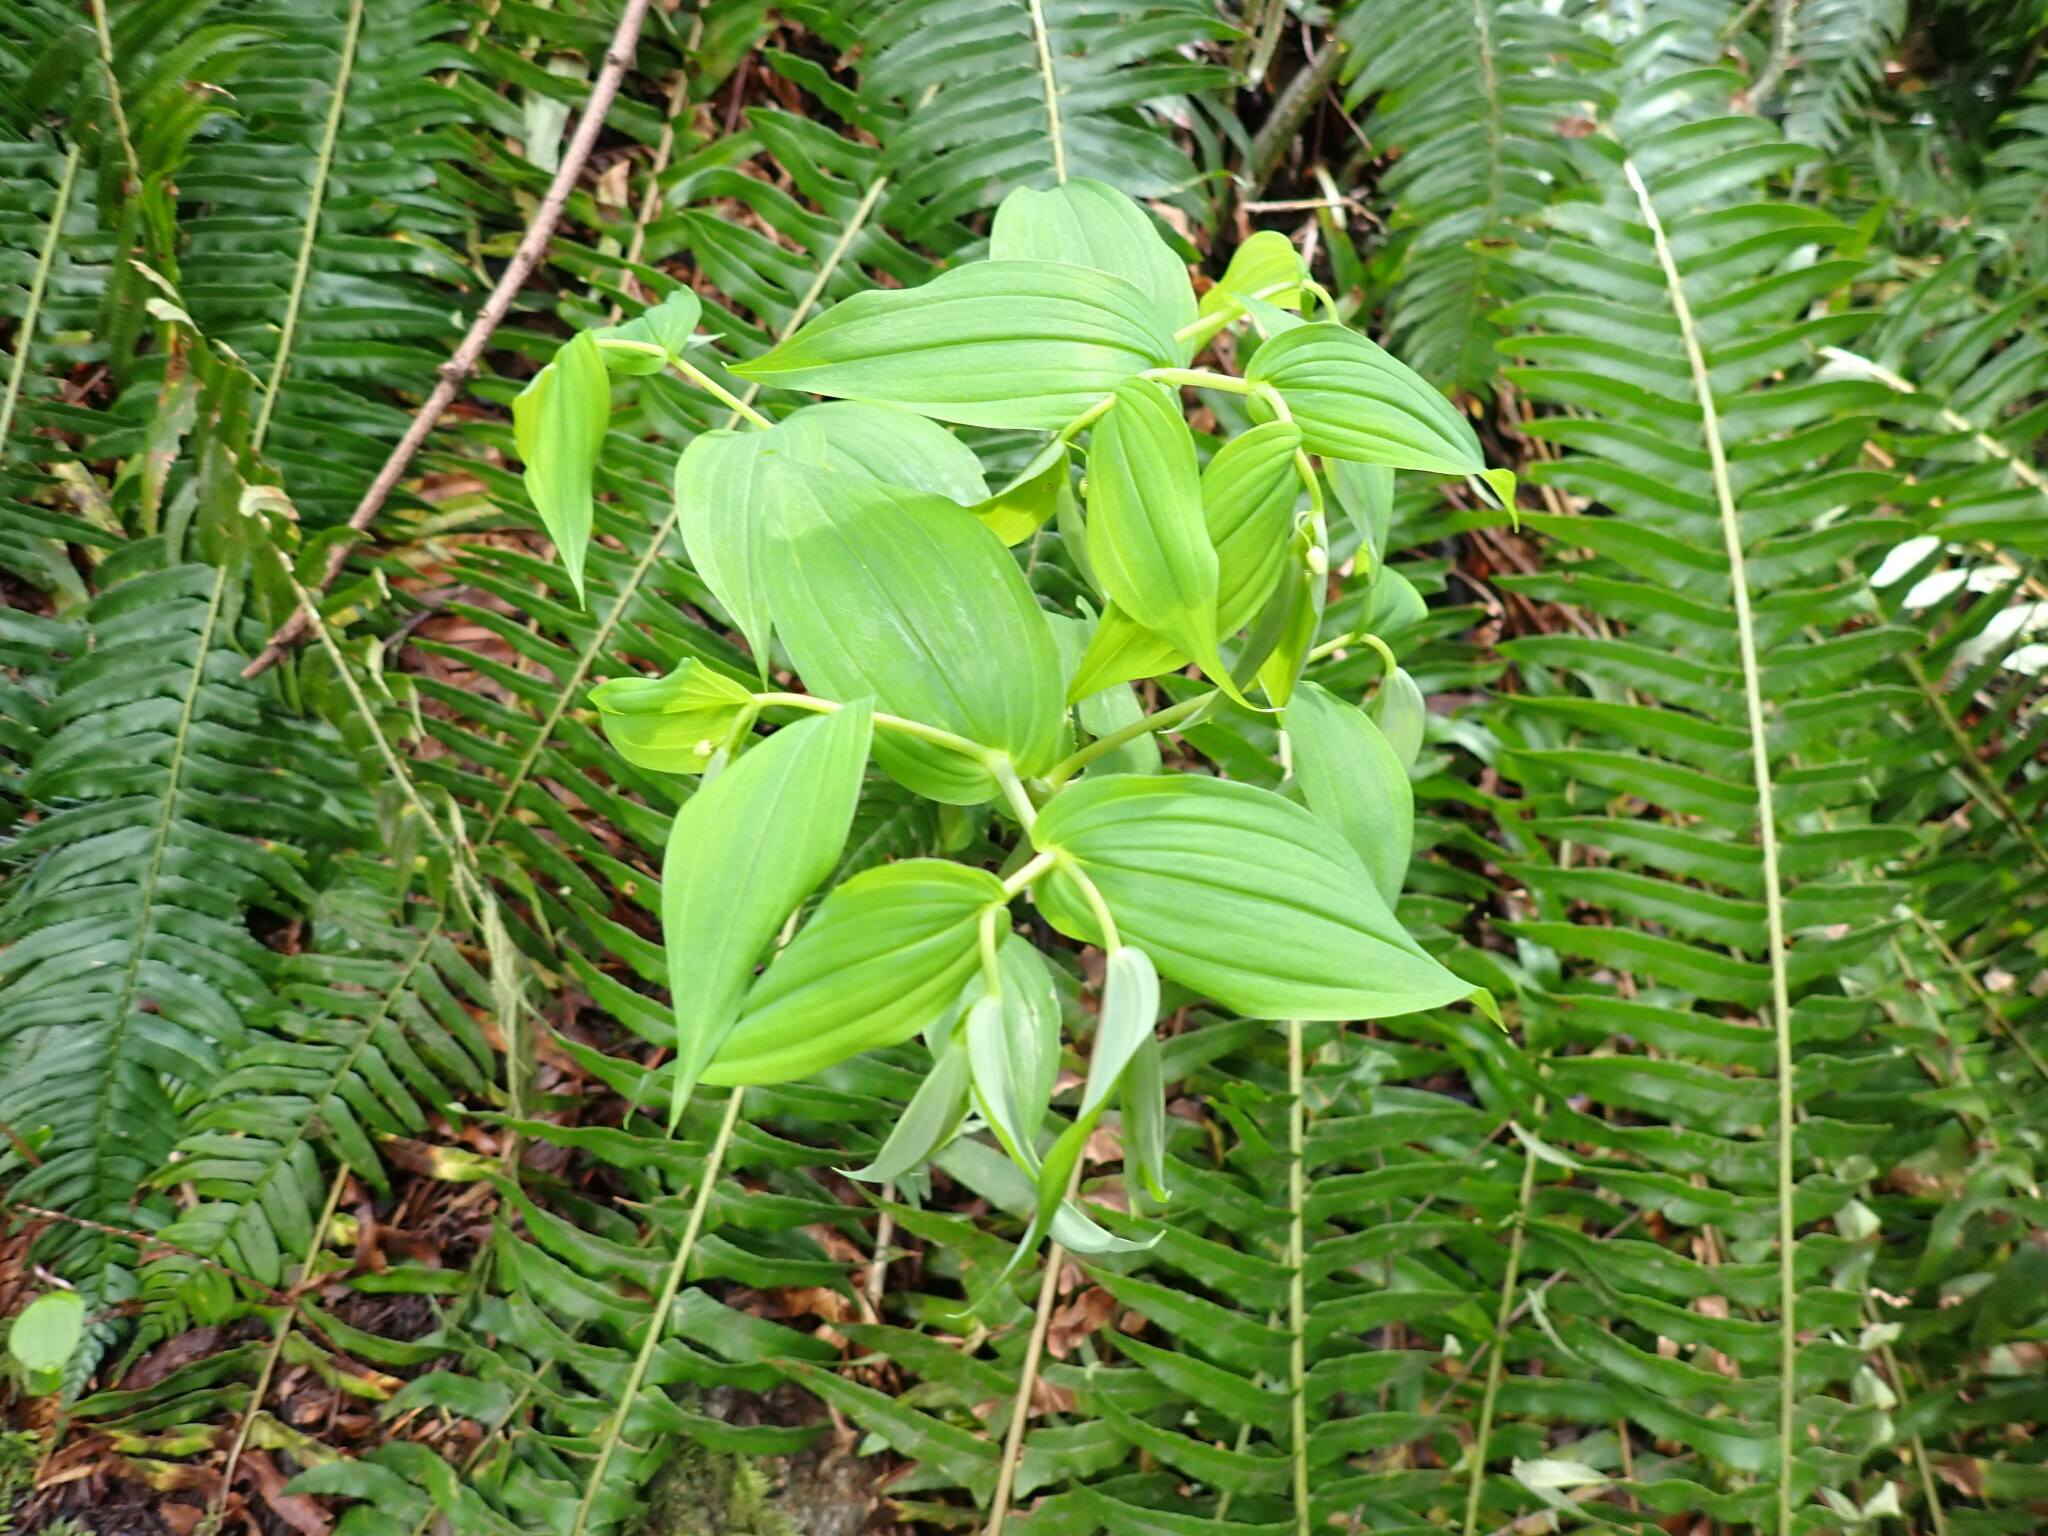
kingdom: Plantae
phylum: Tracheophyta
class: Liliopsida
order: Liliales
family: Liliaceae
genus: Streptopus
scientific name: Streptopus amplexifolius
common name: Clasp twisted stalk
